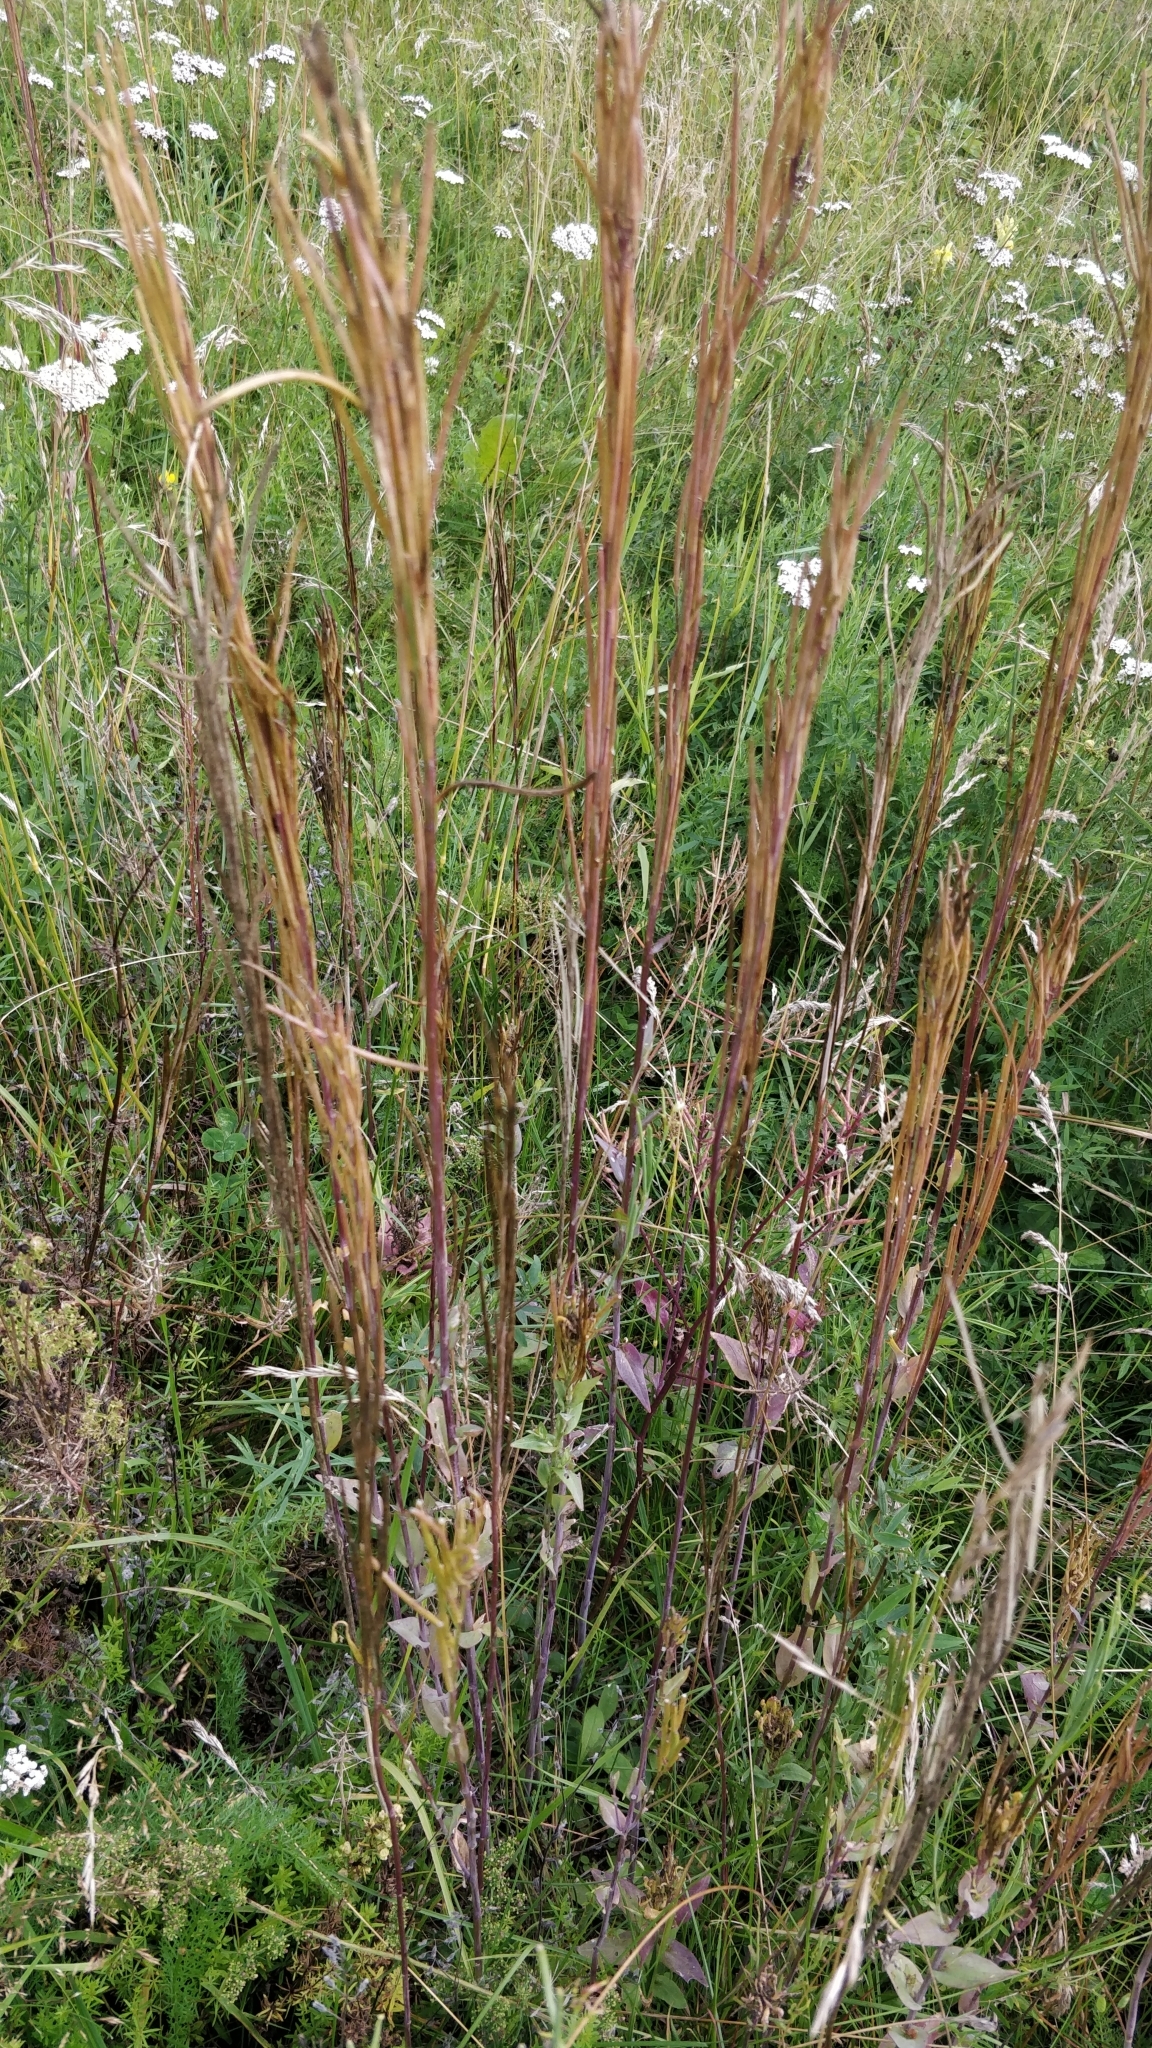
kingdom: Plantae
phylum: Tracheophyta
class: Magnoliopsida
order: Brassicales
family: Brassicaceae
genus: Turritis
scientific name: Turritis glabra
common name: Tower rockcress
